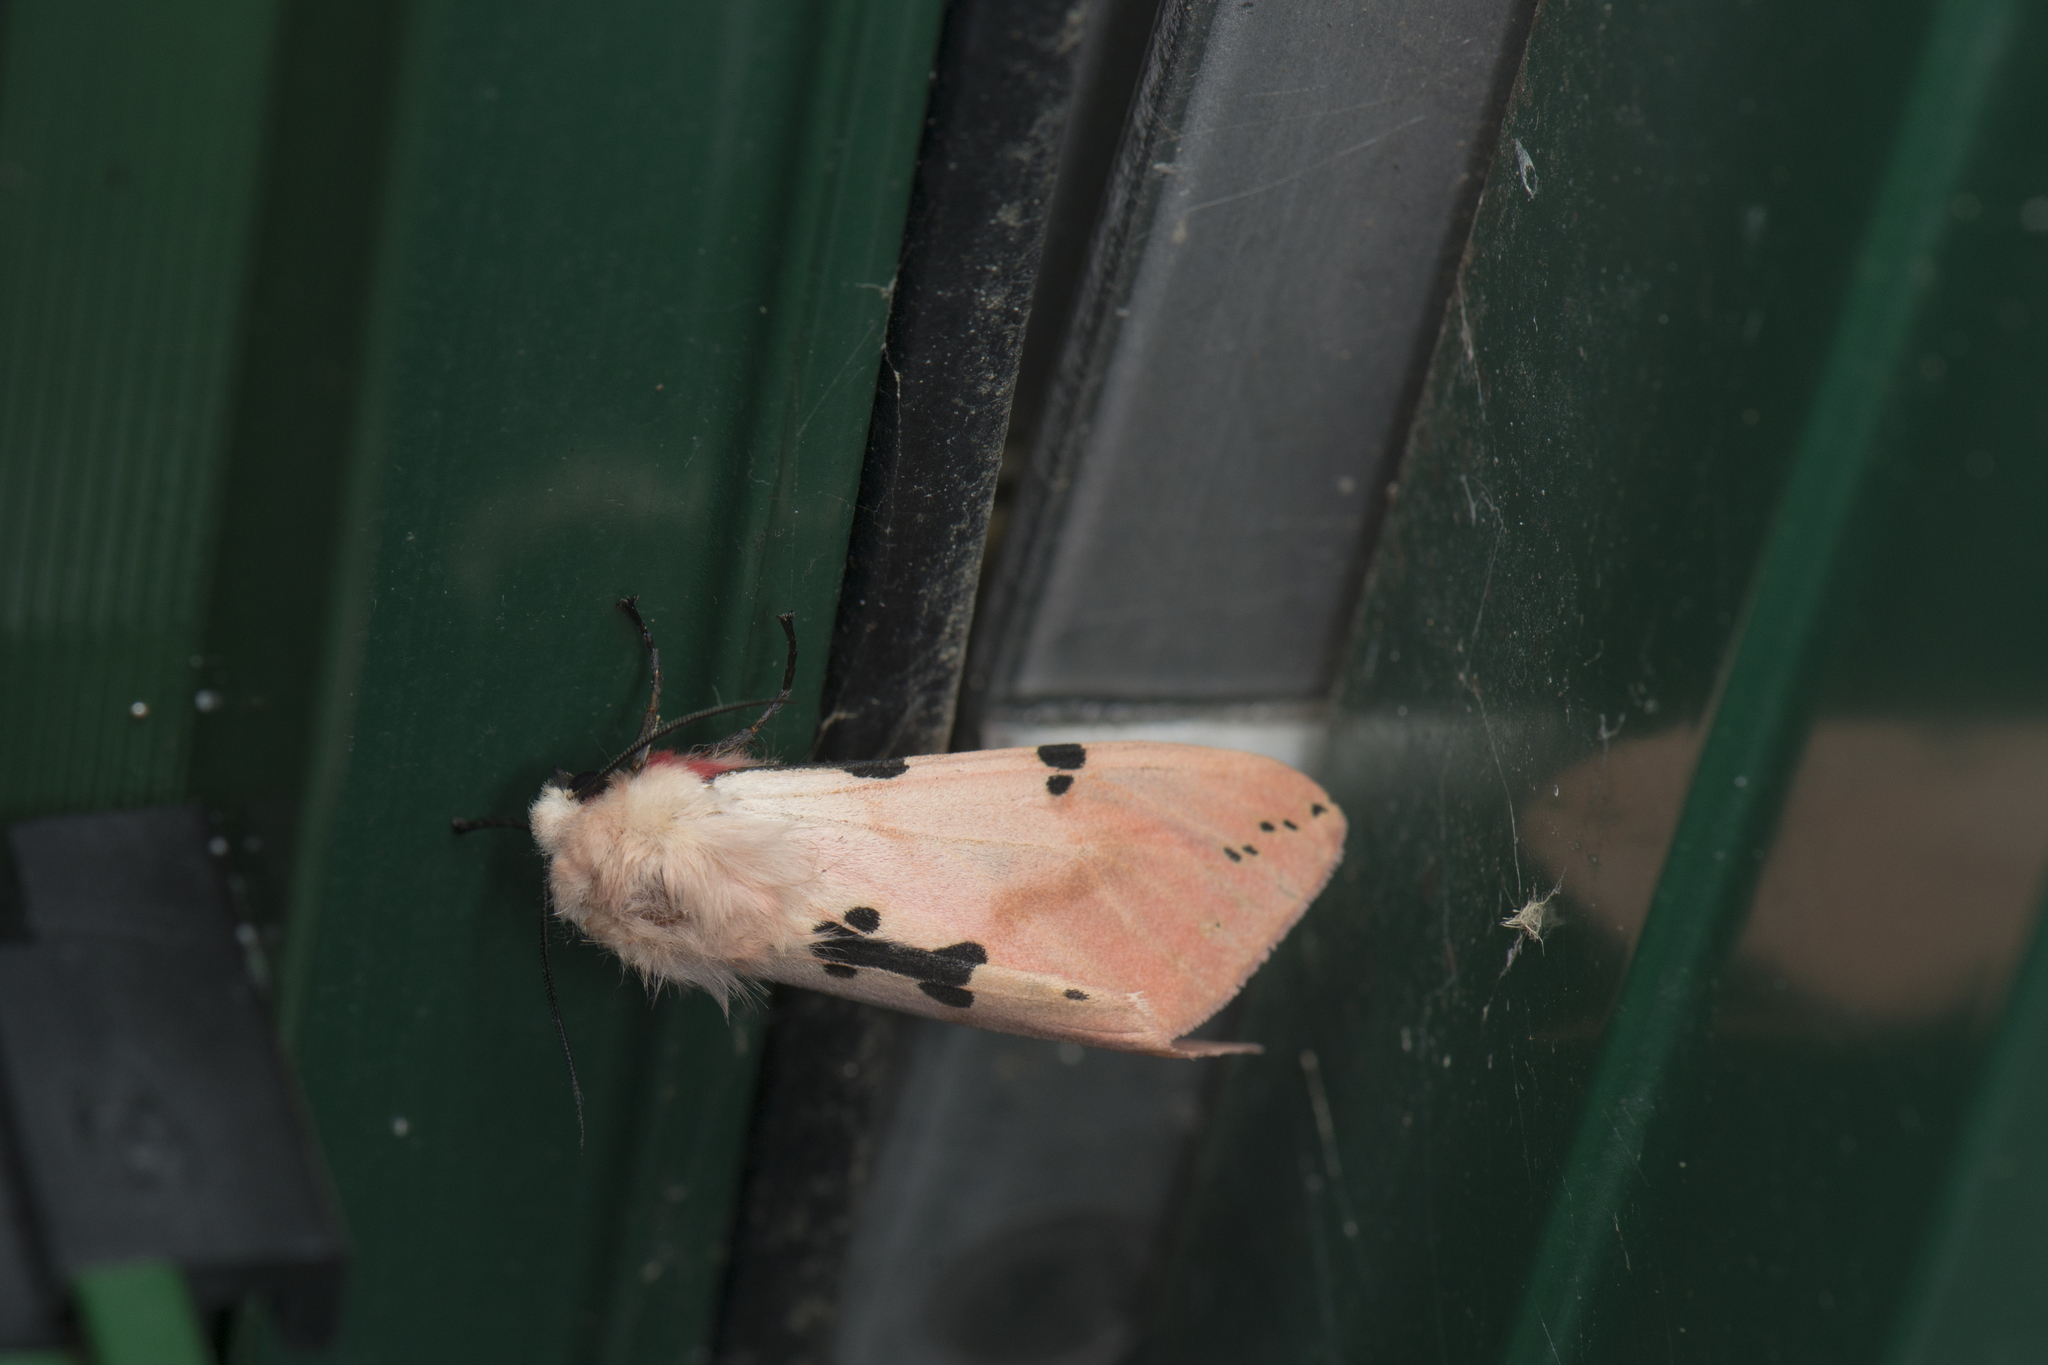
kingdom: Animalia
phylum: Arthropoda
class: Insecta
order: Lepidoptera
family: Erebidae
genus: Spilarctia
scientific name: Spilarctia clava
